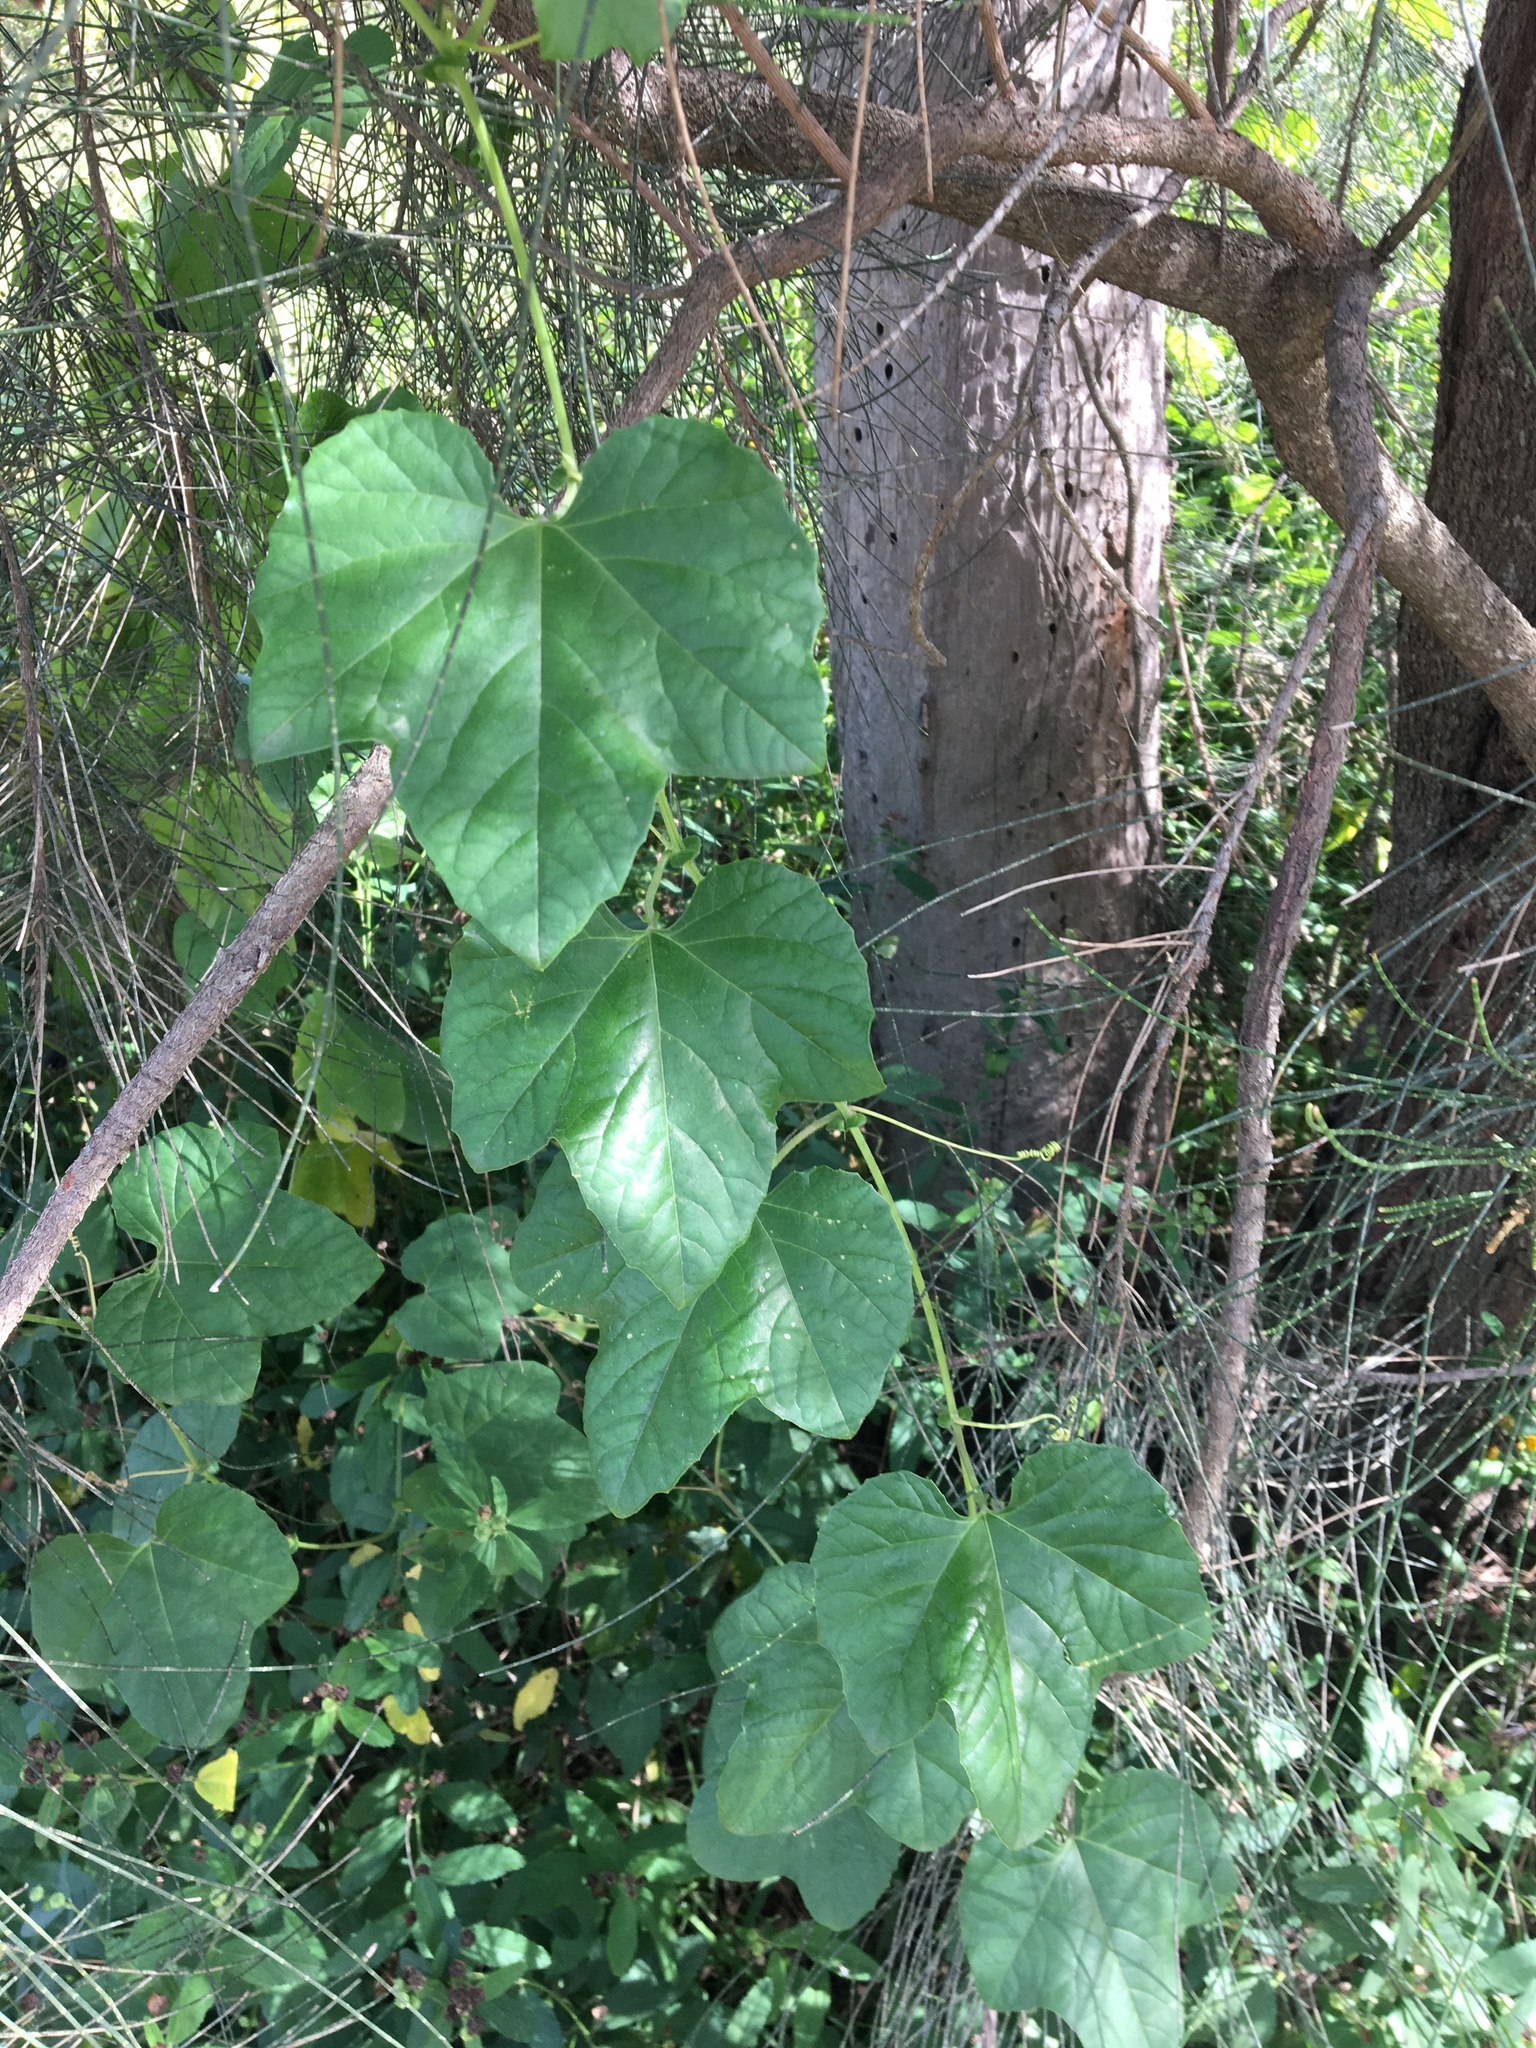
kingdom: Plantae
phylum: Tracheophyta
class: Magnoliopsida
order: Malpighiales
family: Passifloraceae
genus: Passiflora
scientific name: Passiflora morifolia
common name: Woodland passionflower
